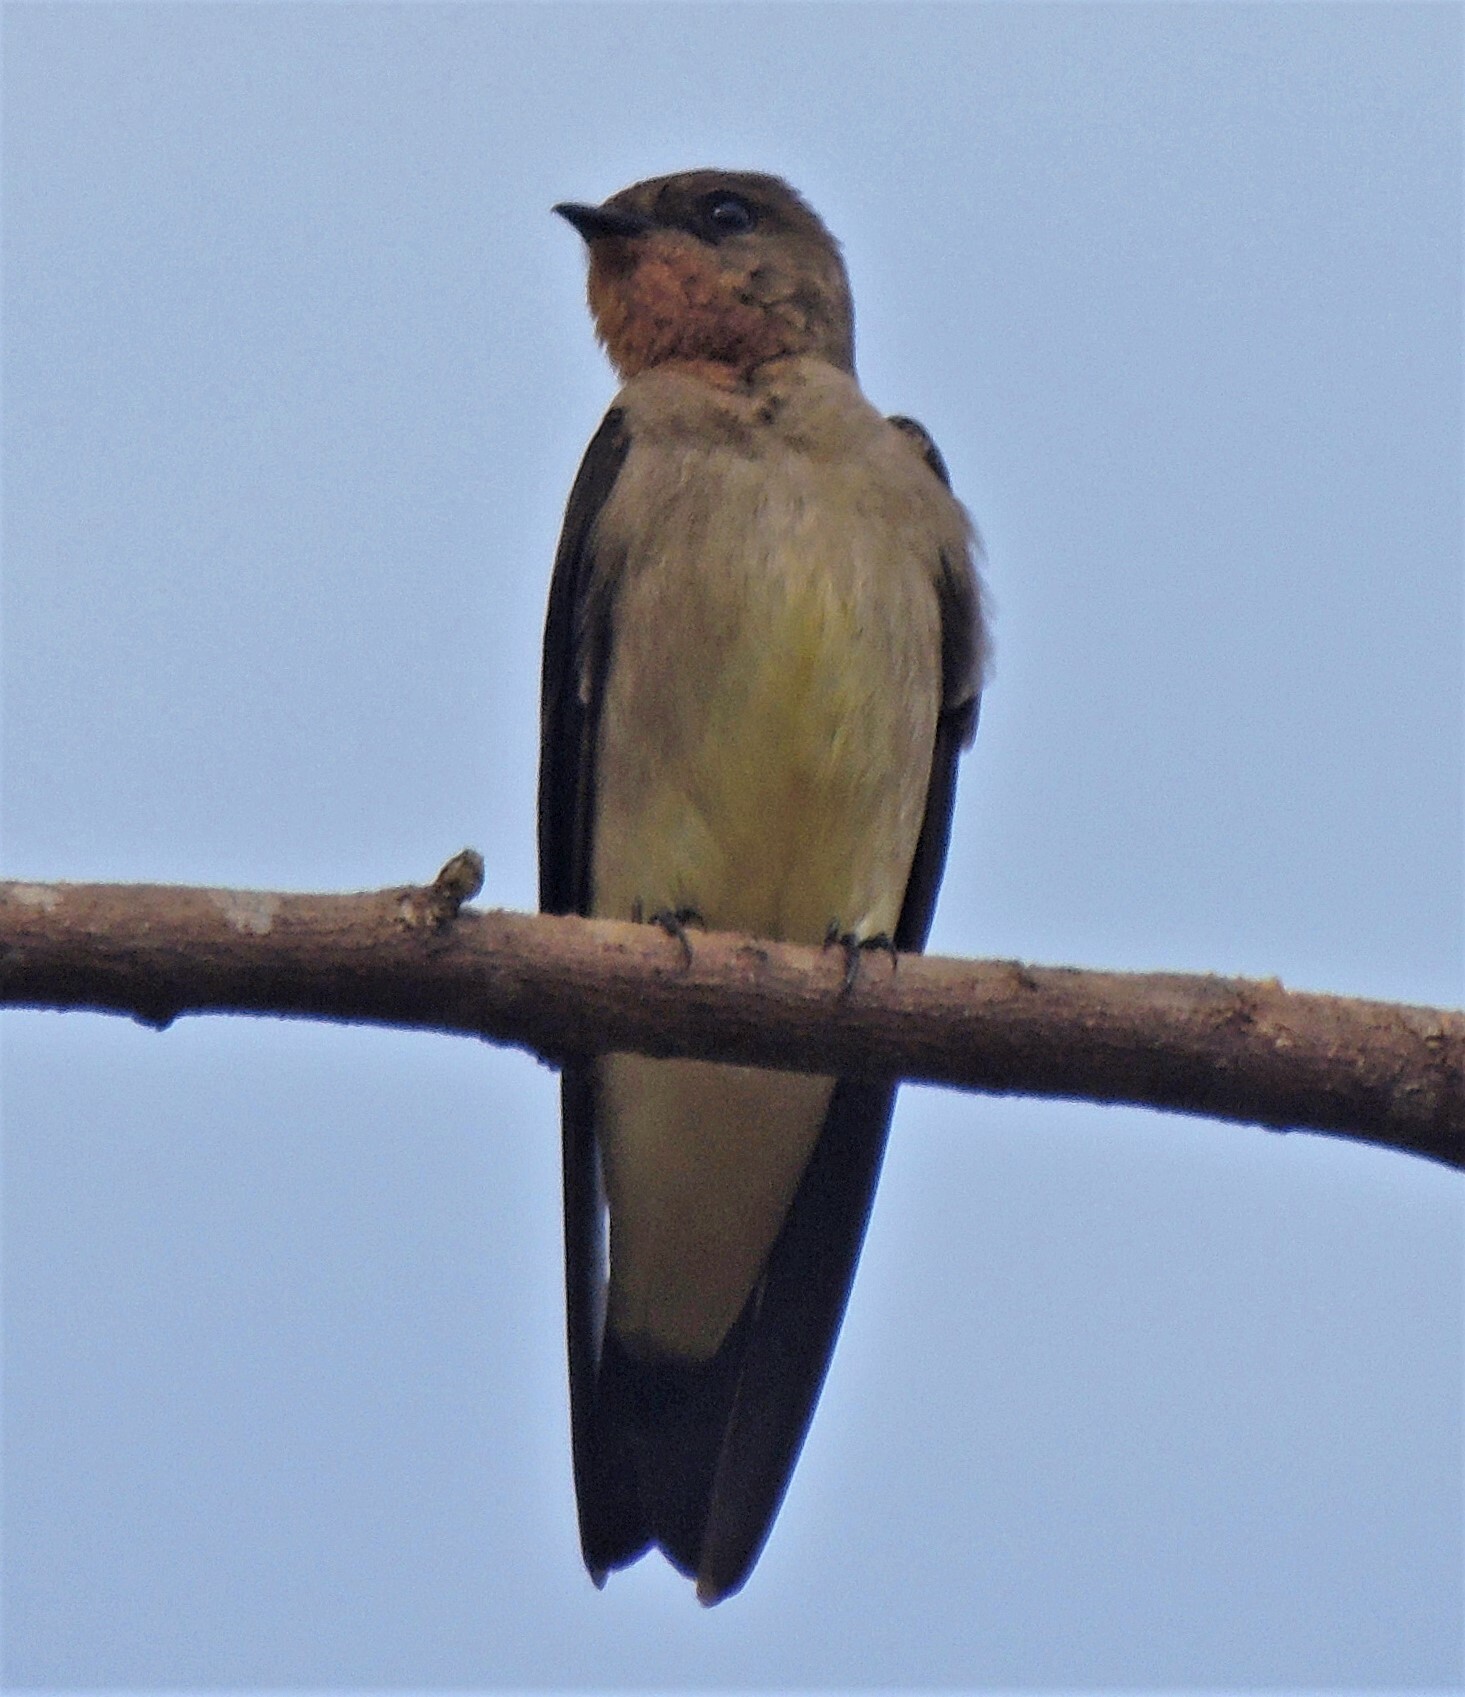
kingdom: Animalia
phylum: Chordata
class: Aves
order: Passeriformes
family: Hirundinidae
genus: Stelgidopteryx
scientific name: Stelgidopteryx ruficollis
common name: Southern rough-winged swallow
